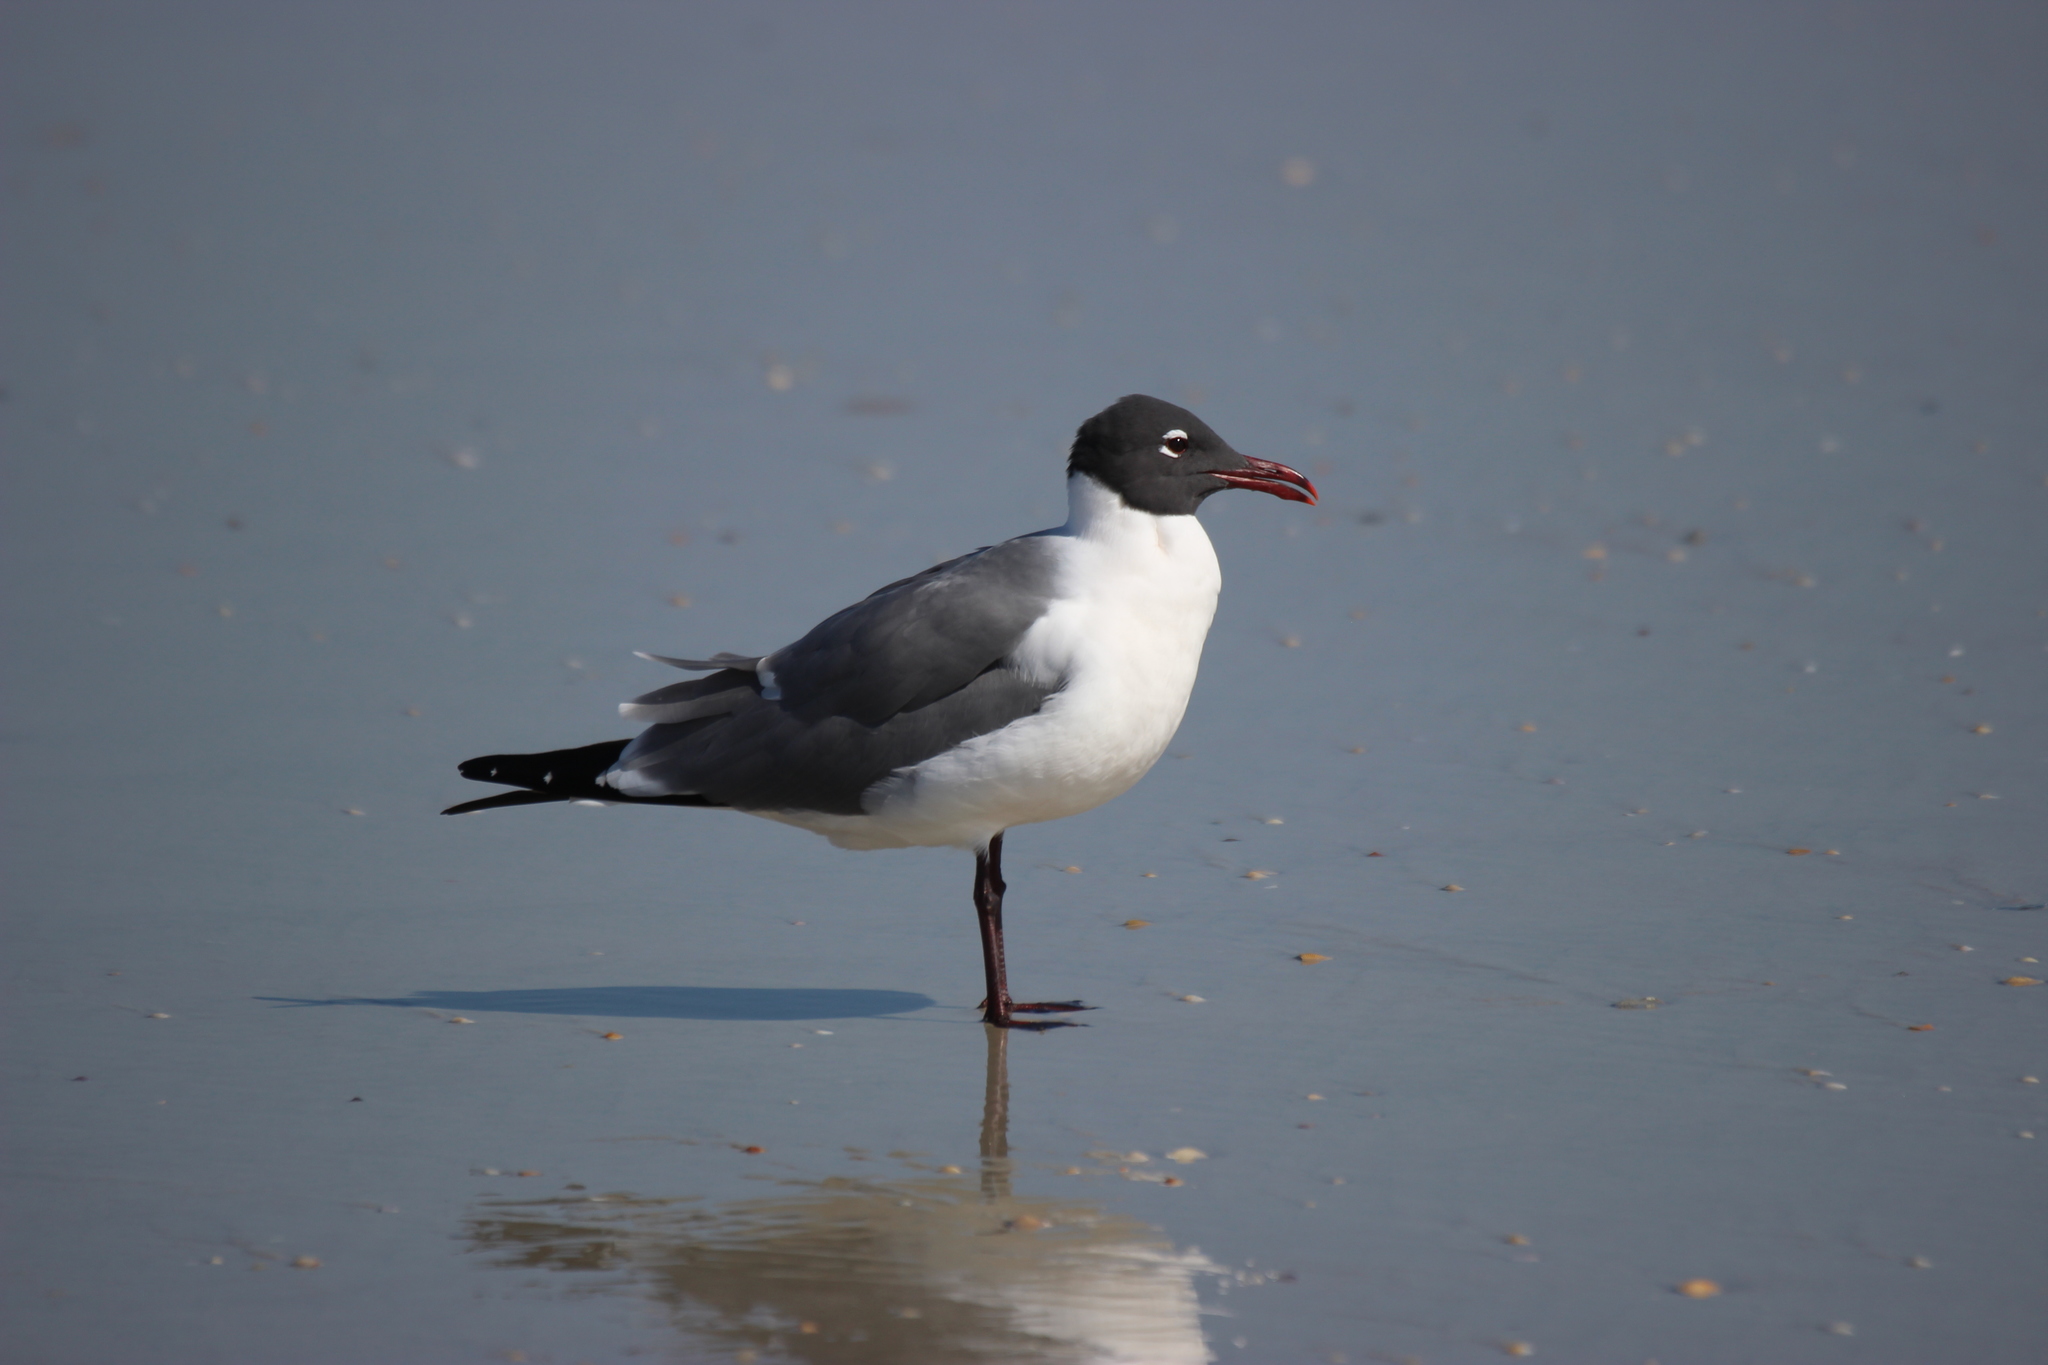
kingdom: Animalia
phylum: Chordata
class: Aves
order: Charadriiformes
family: Laridae
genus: Leucophaeus
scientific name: Leucophaeus atricilla
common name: Laughing gull
